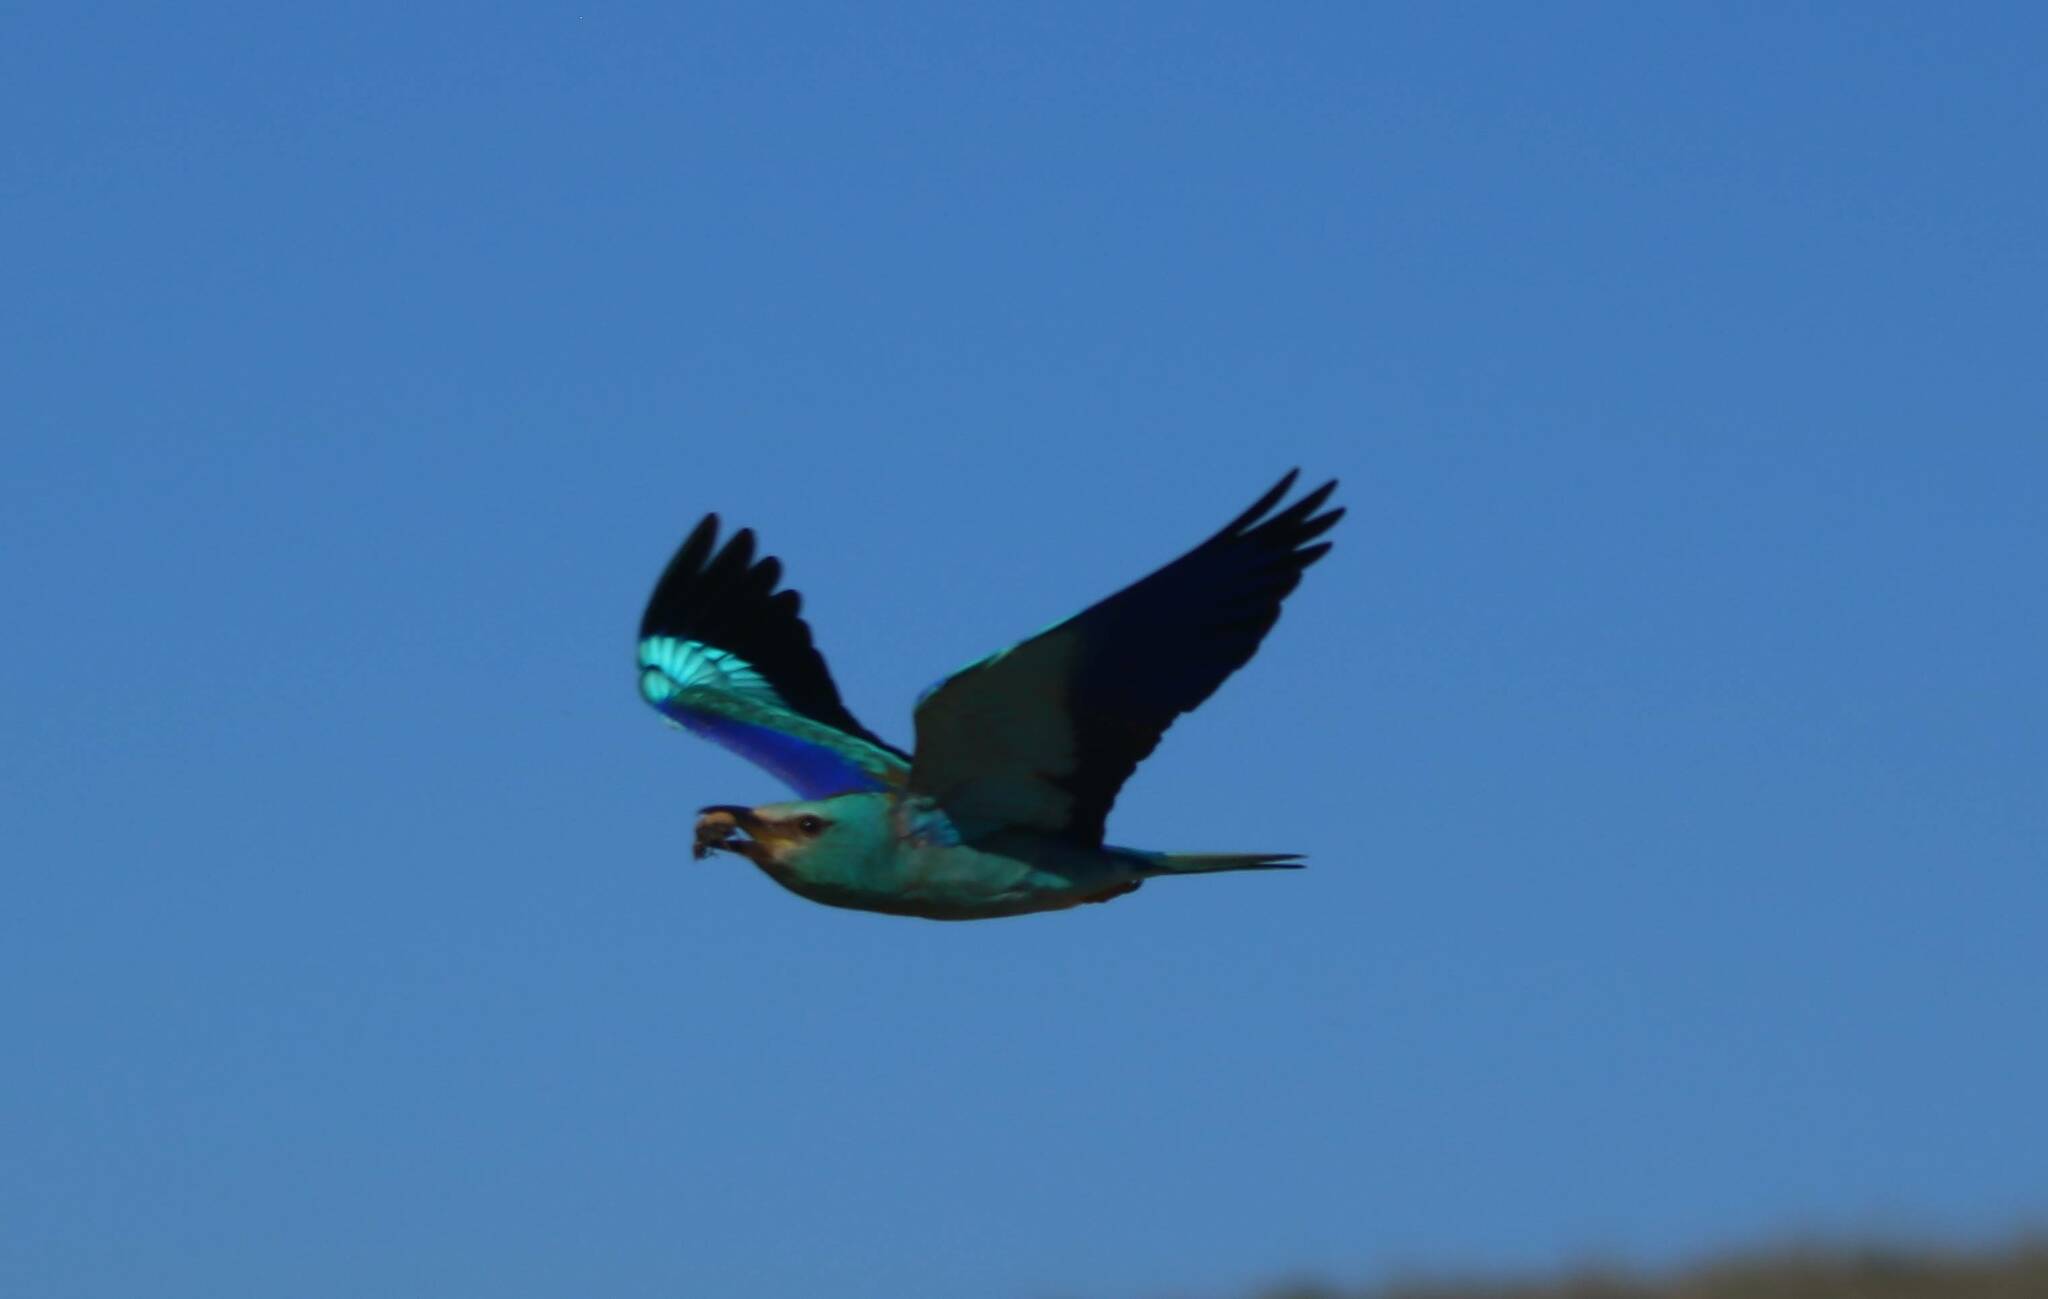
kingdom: Animalia
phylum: Chordata
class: Aves
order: Coraciiformes
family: Coraciidae
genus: Coracias
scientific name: Coracias garrulus
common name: European roller
